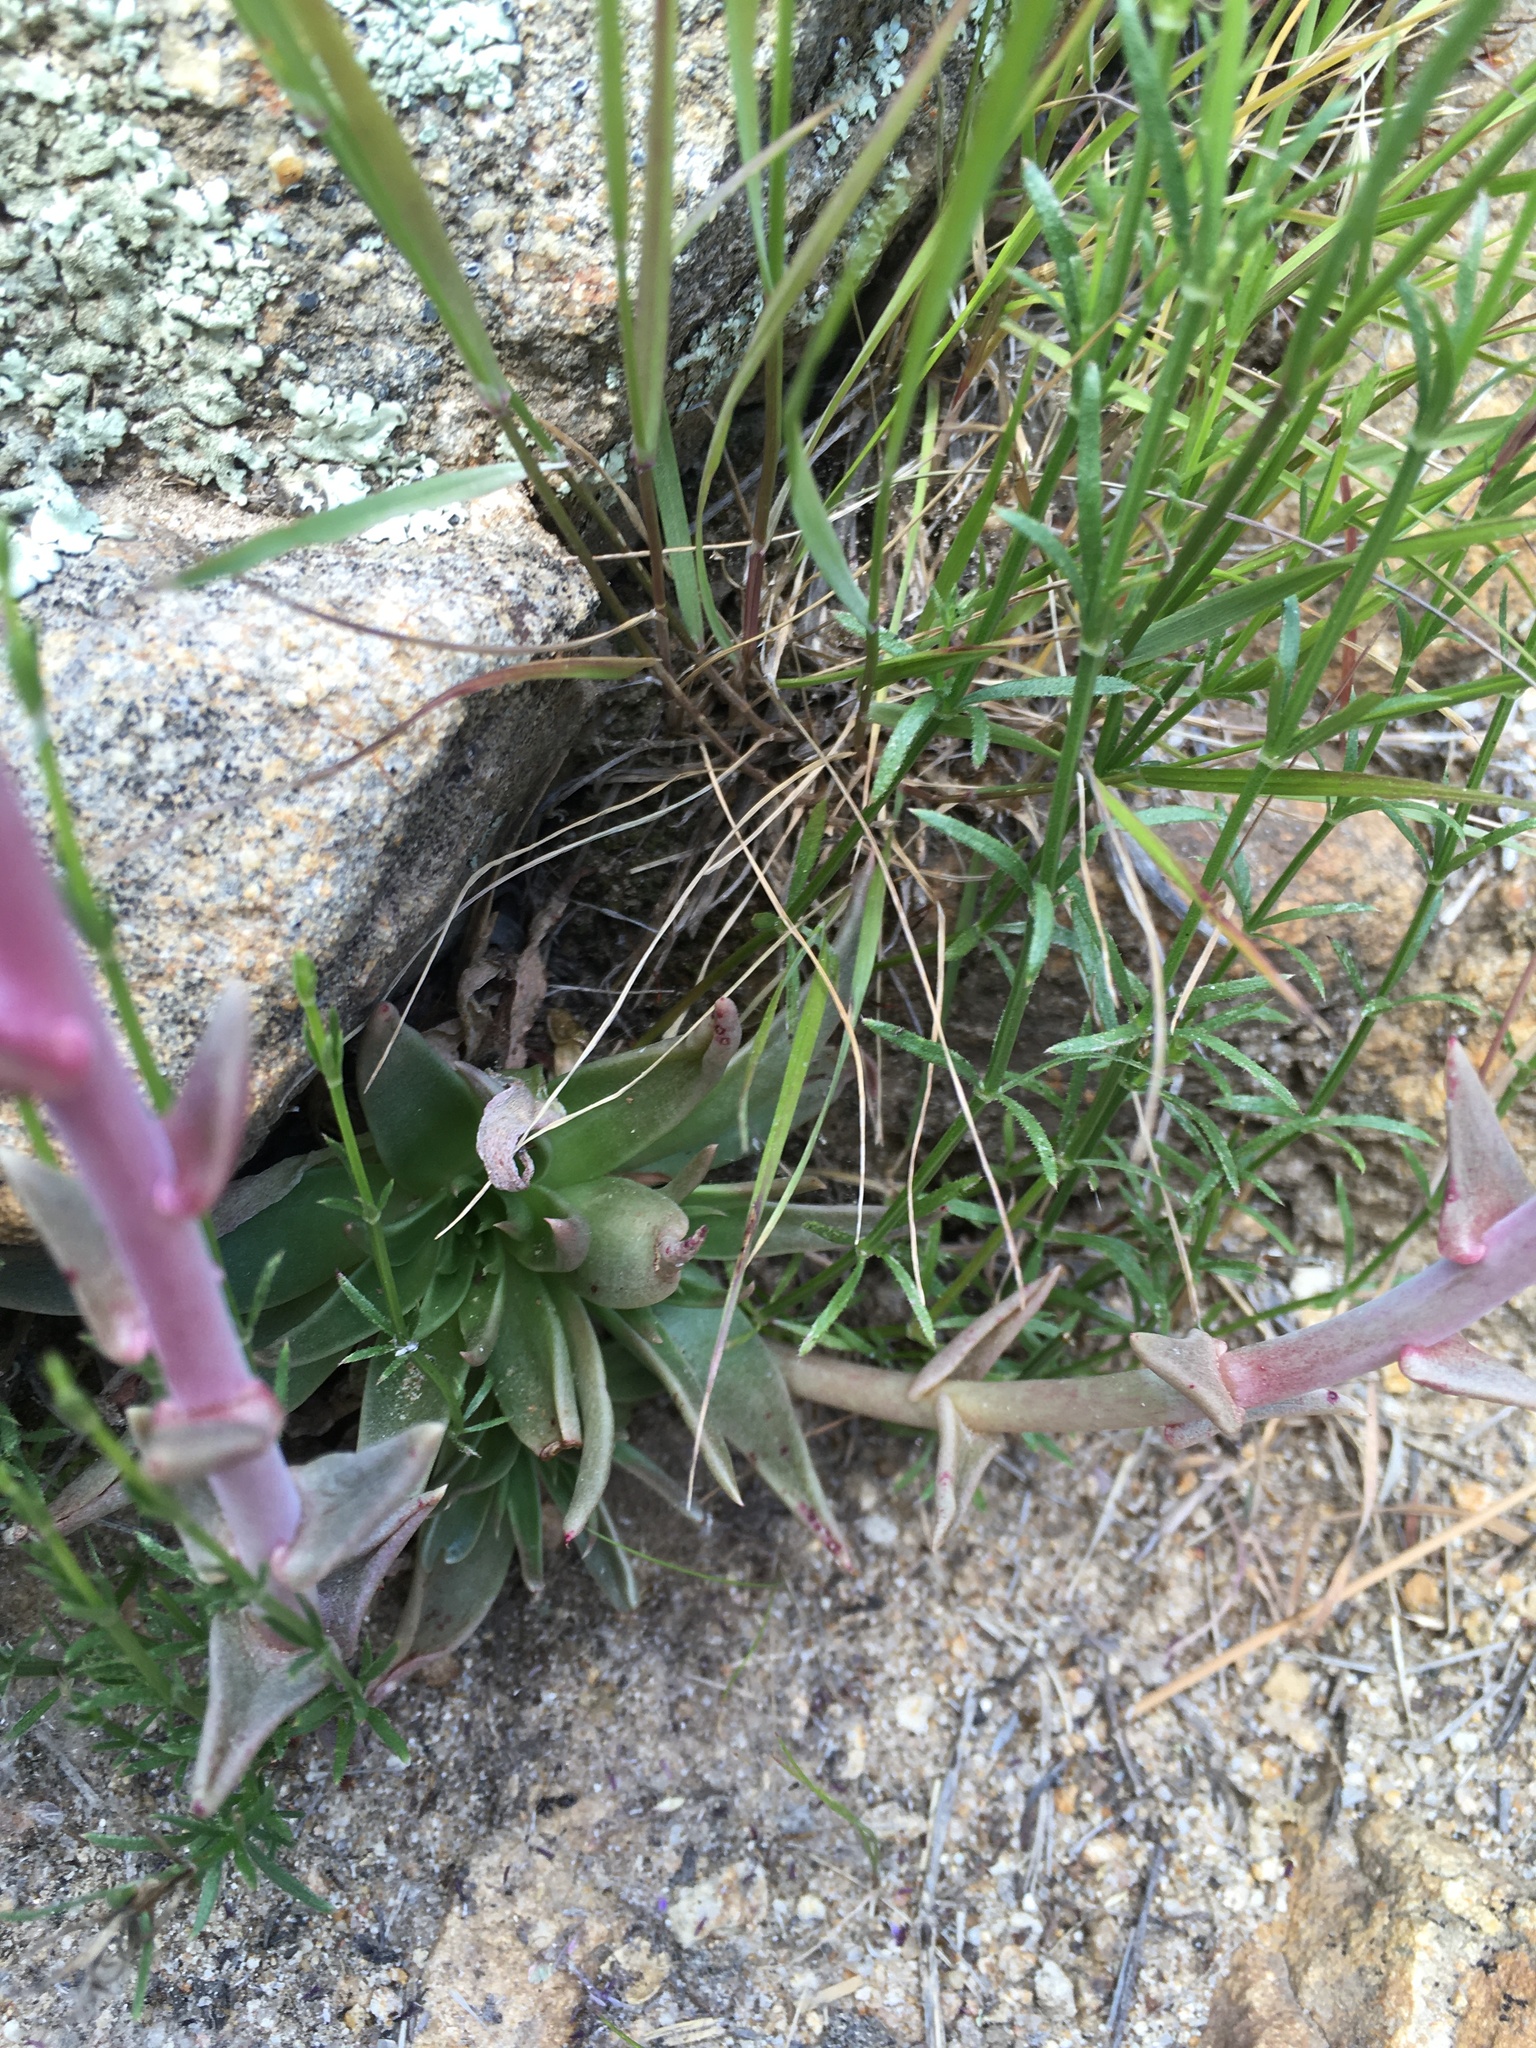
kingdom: Plantae
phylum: Tracheophyta
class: Magnoliopsida
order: Saxifragales
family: Crassulaceae
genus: Dudleya
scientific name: Dudleya saxosa
